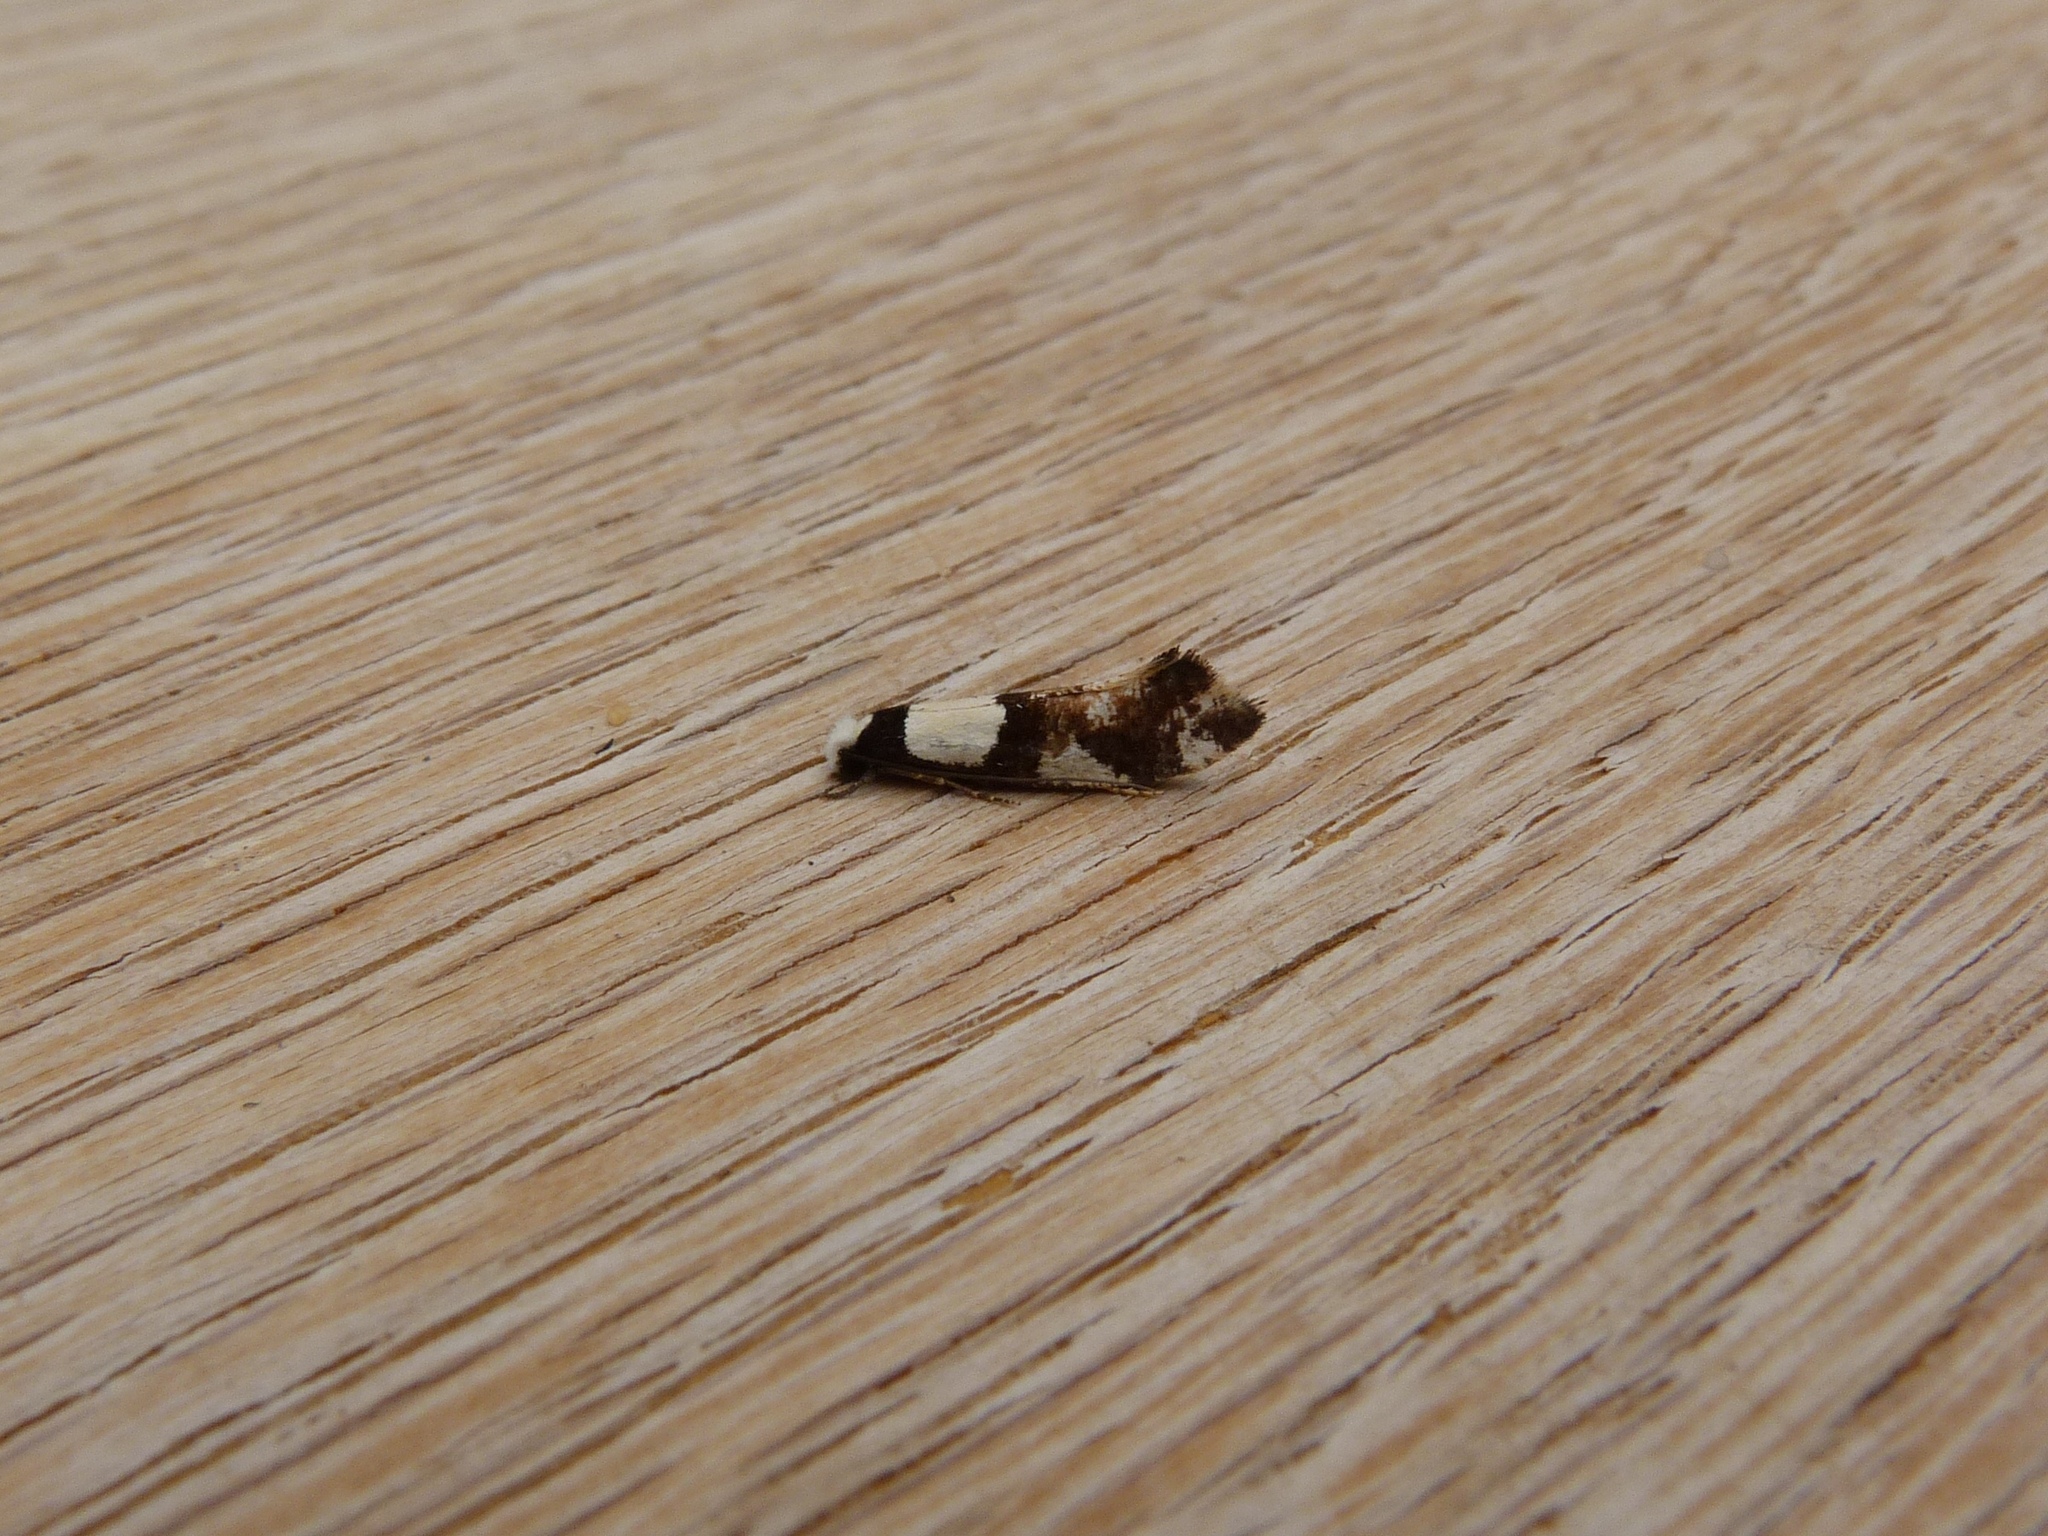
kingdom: Animalia
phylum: Arthropoda
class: Insecta
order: Lepidoptera
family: Tineidae
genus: Monopis
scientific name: Monopis icterogastra
